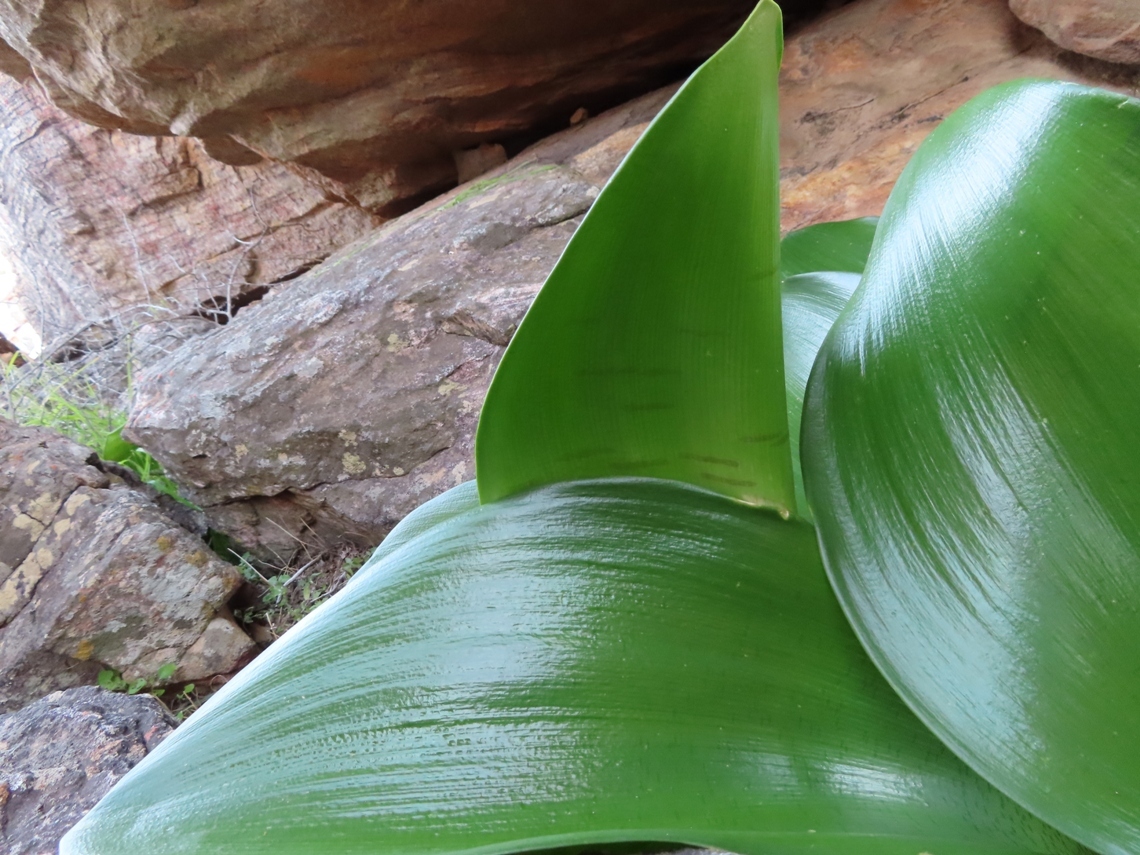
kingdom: Plantae
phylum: Tracheophyta
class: Liliopsida
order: Asparagales
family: Amaryllidaceae
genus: Haemanthus
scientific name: Haemanthus coccineus
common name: Cape-tulip
